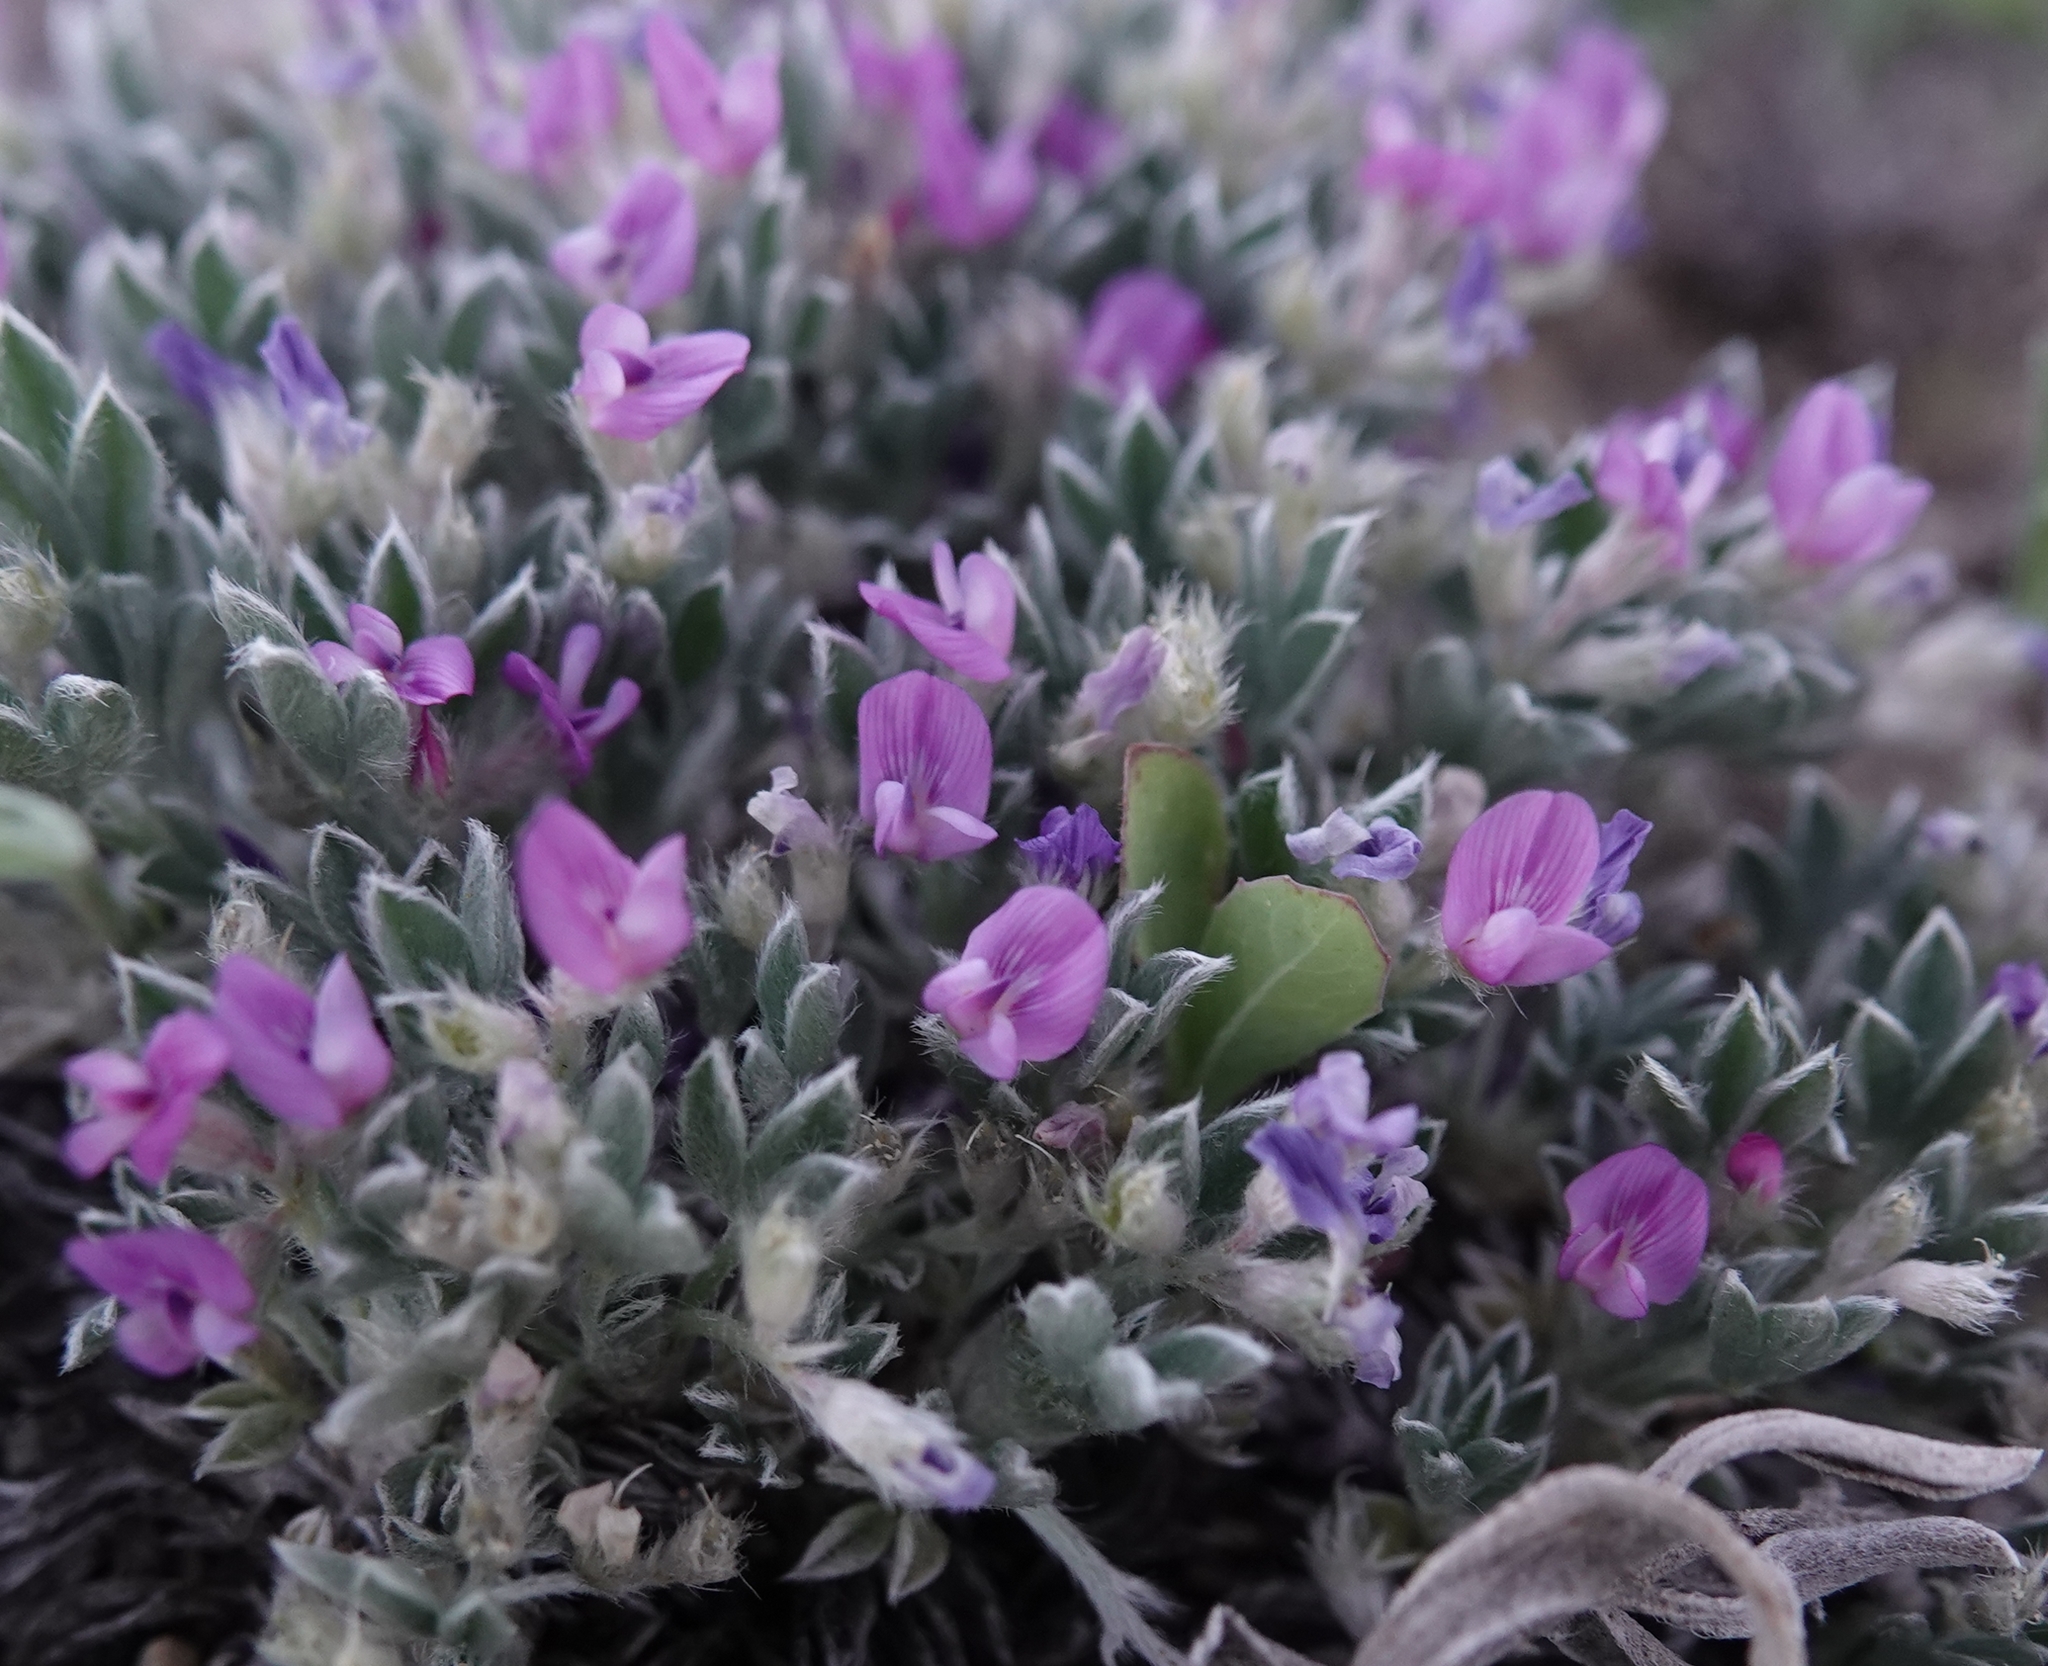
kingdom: Plantae
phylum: Tracheophyta
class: Magnoliopsida
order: Fabales
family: Fabaceae
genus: Astragalus
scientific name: Astragalus sericoleucus
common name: Silky orophaca
